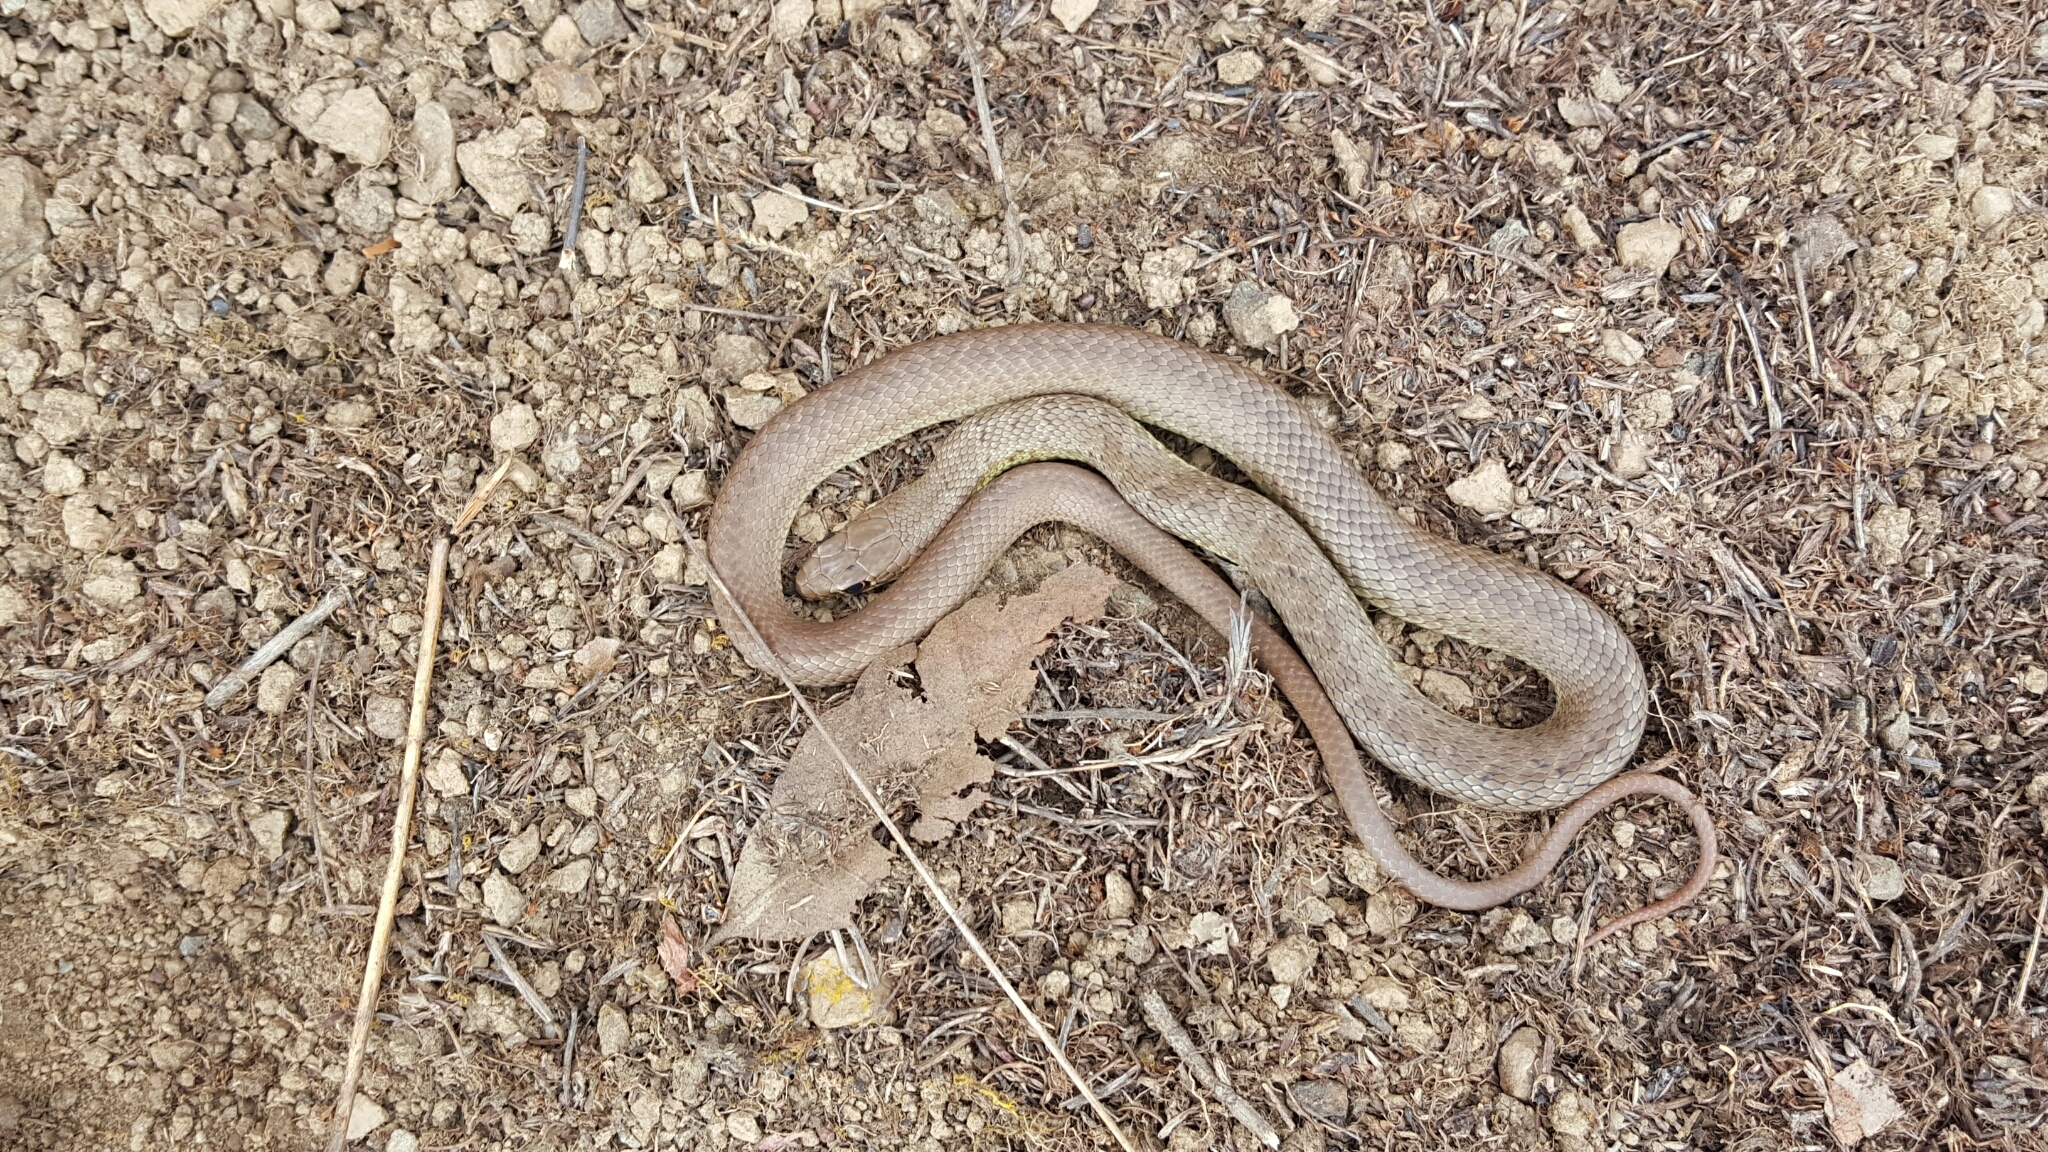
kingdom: Animalia
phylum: Chordata
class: Squamata
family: Colubridae
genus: Coluber
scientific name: Coluber constrictor
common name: Eastern racer
